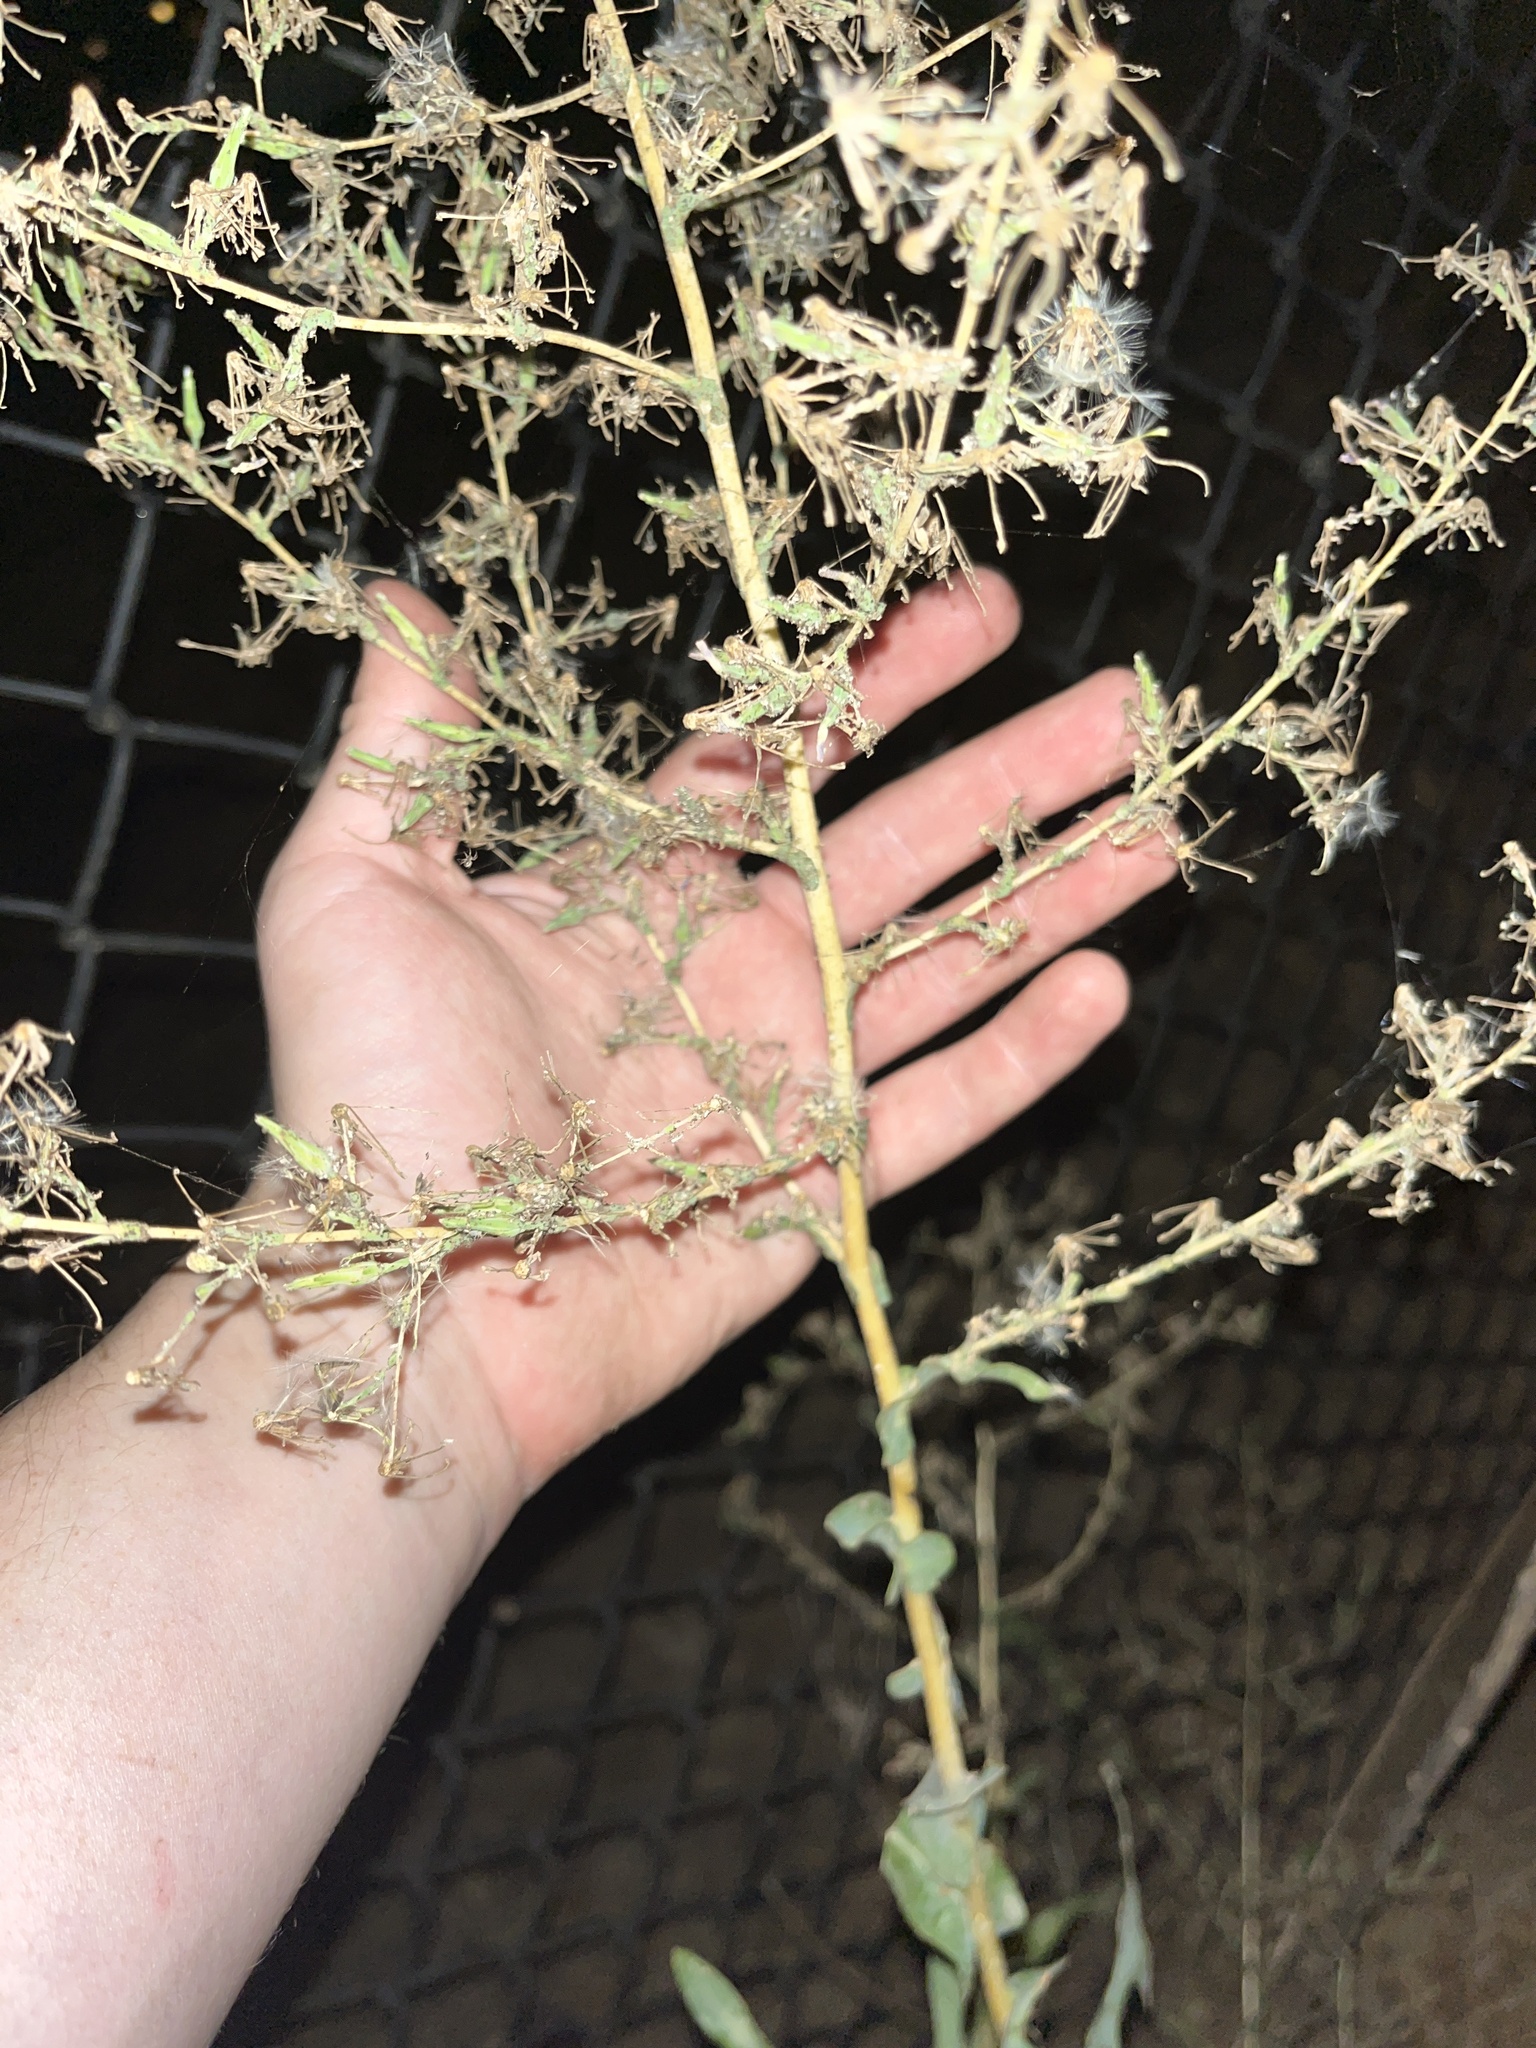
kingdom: Plantae
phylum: Tracheophyta
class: Magnoliopsida
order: Asterales
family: Asteraceae
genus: Lactuca
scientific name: Lactuca serriola
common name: Prickly lettuce
